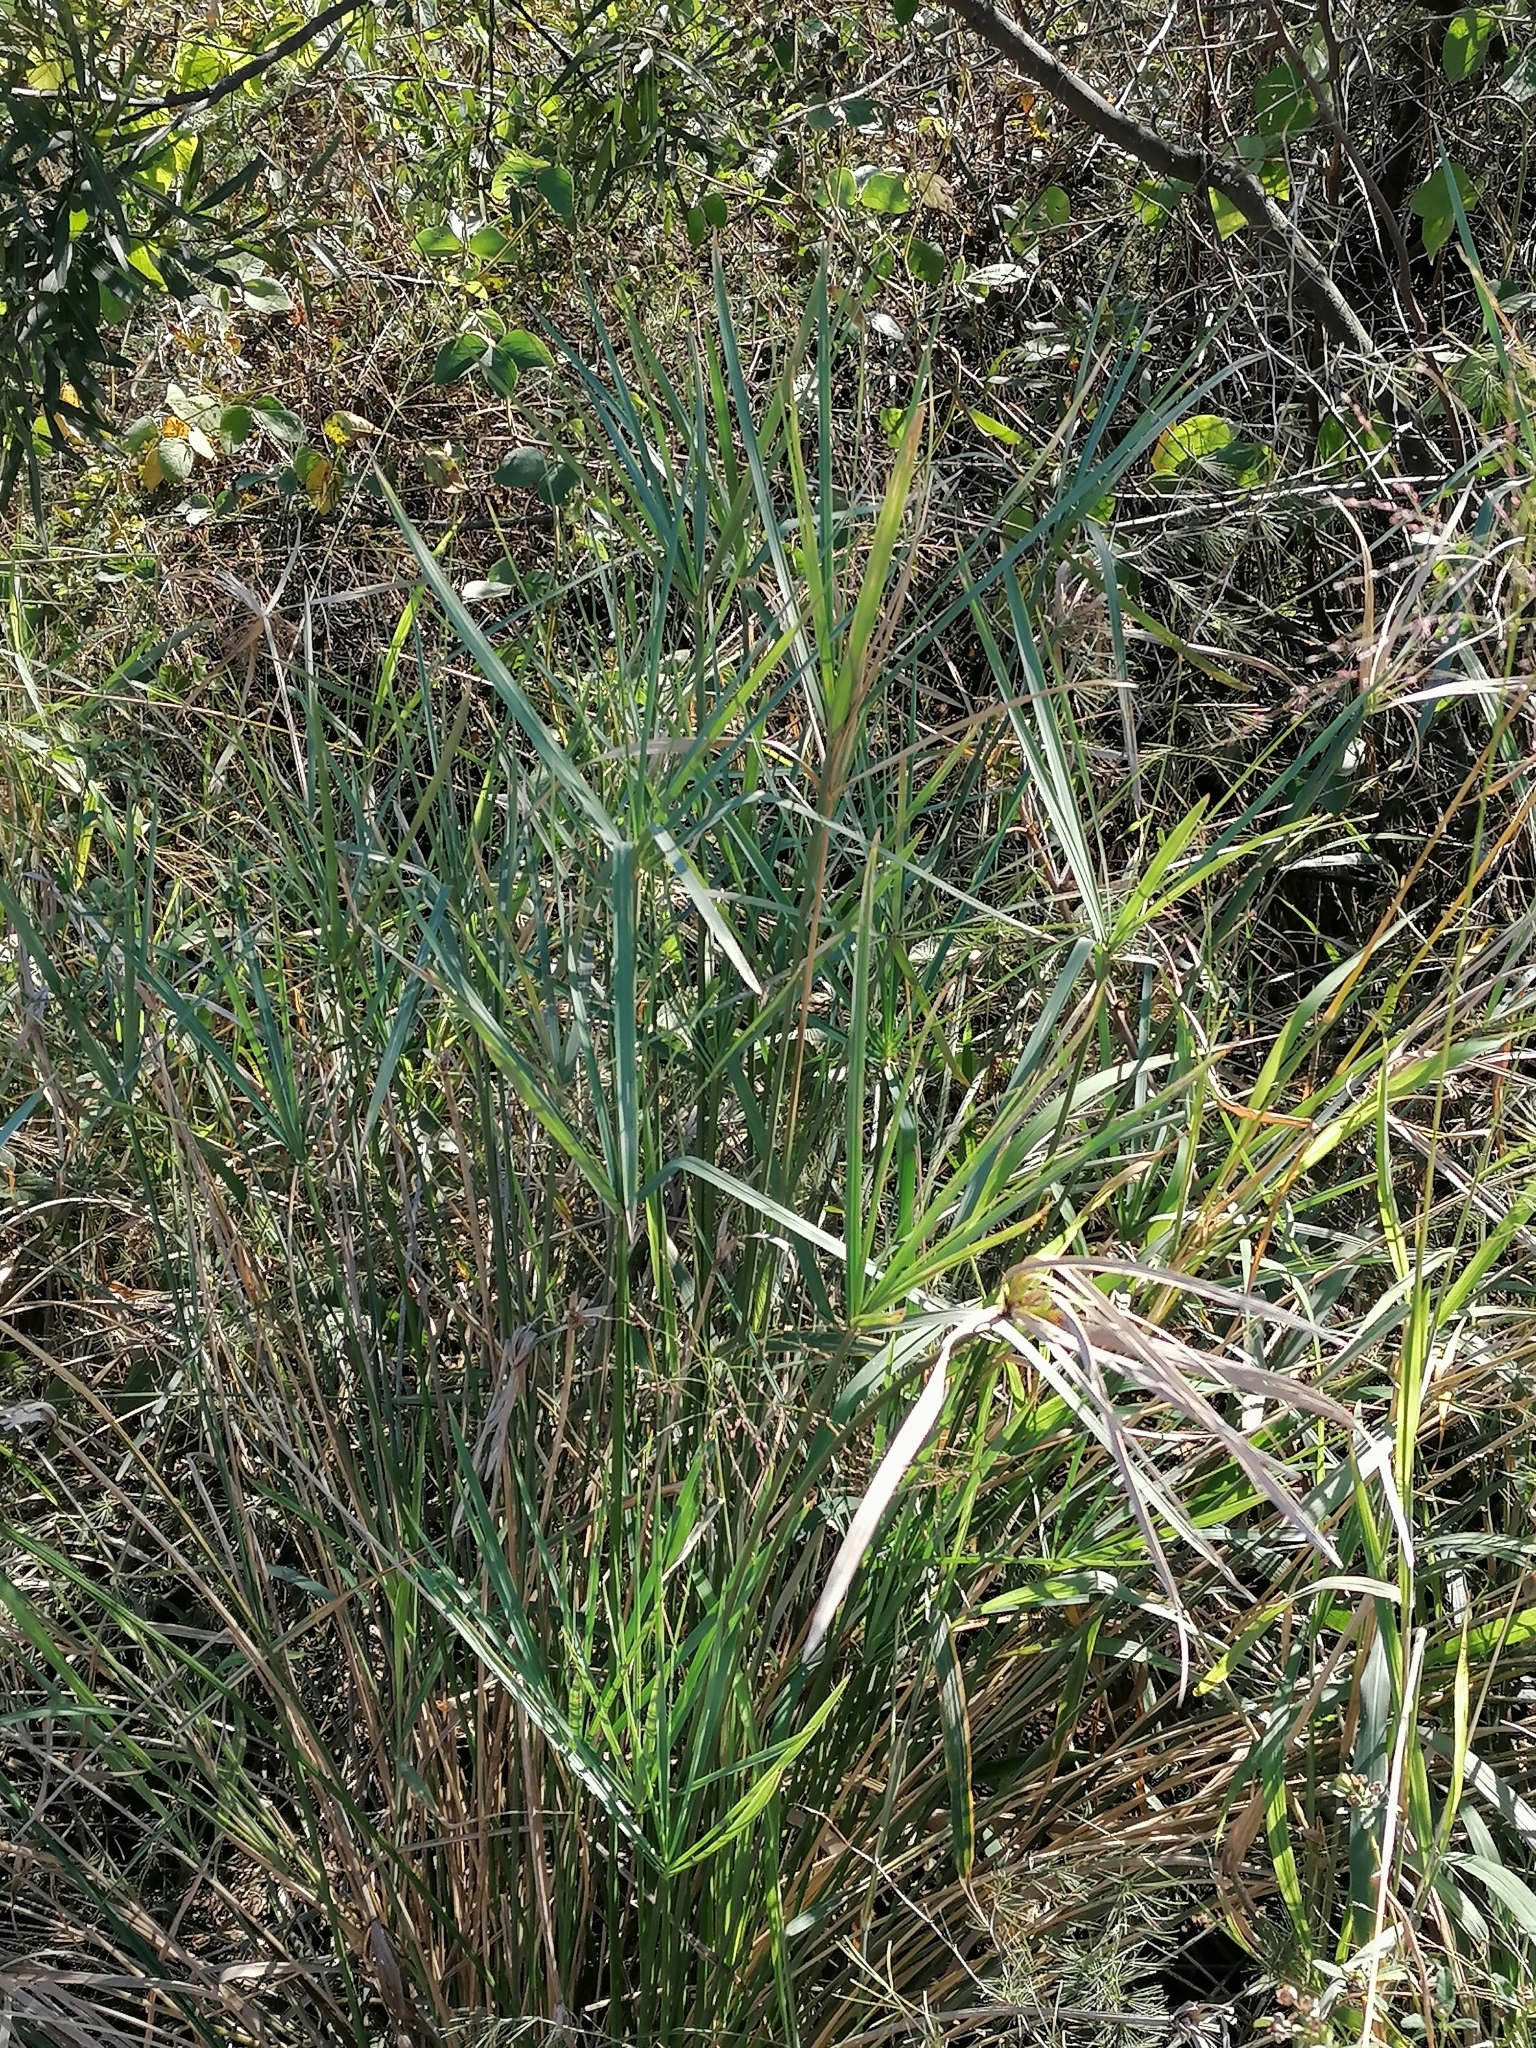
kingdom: Plantae
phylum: Tracheophyta
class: Liliopsida
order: Poales
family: Cyperaceae
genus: Cyperus
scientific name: Cyperus textilis
